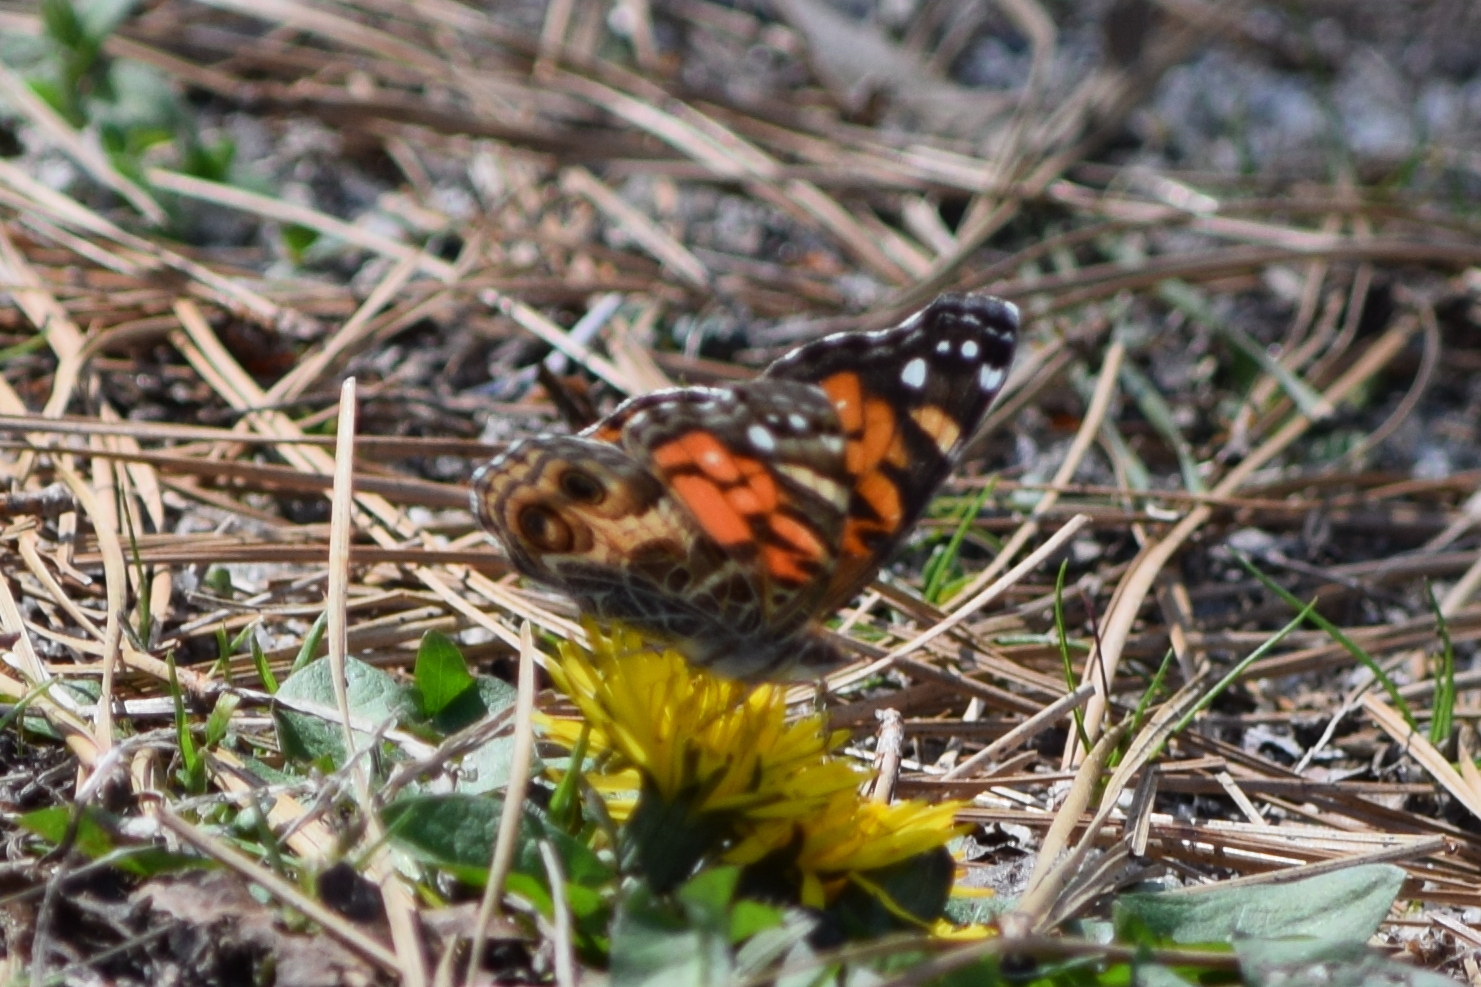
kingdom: Animalia
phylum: Arthropoda
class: Insecta
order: Lepidoptera
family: Nymphalidae
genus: Vanessa
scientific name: Vanessa virginiensis
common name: American lady
